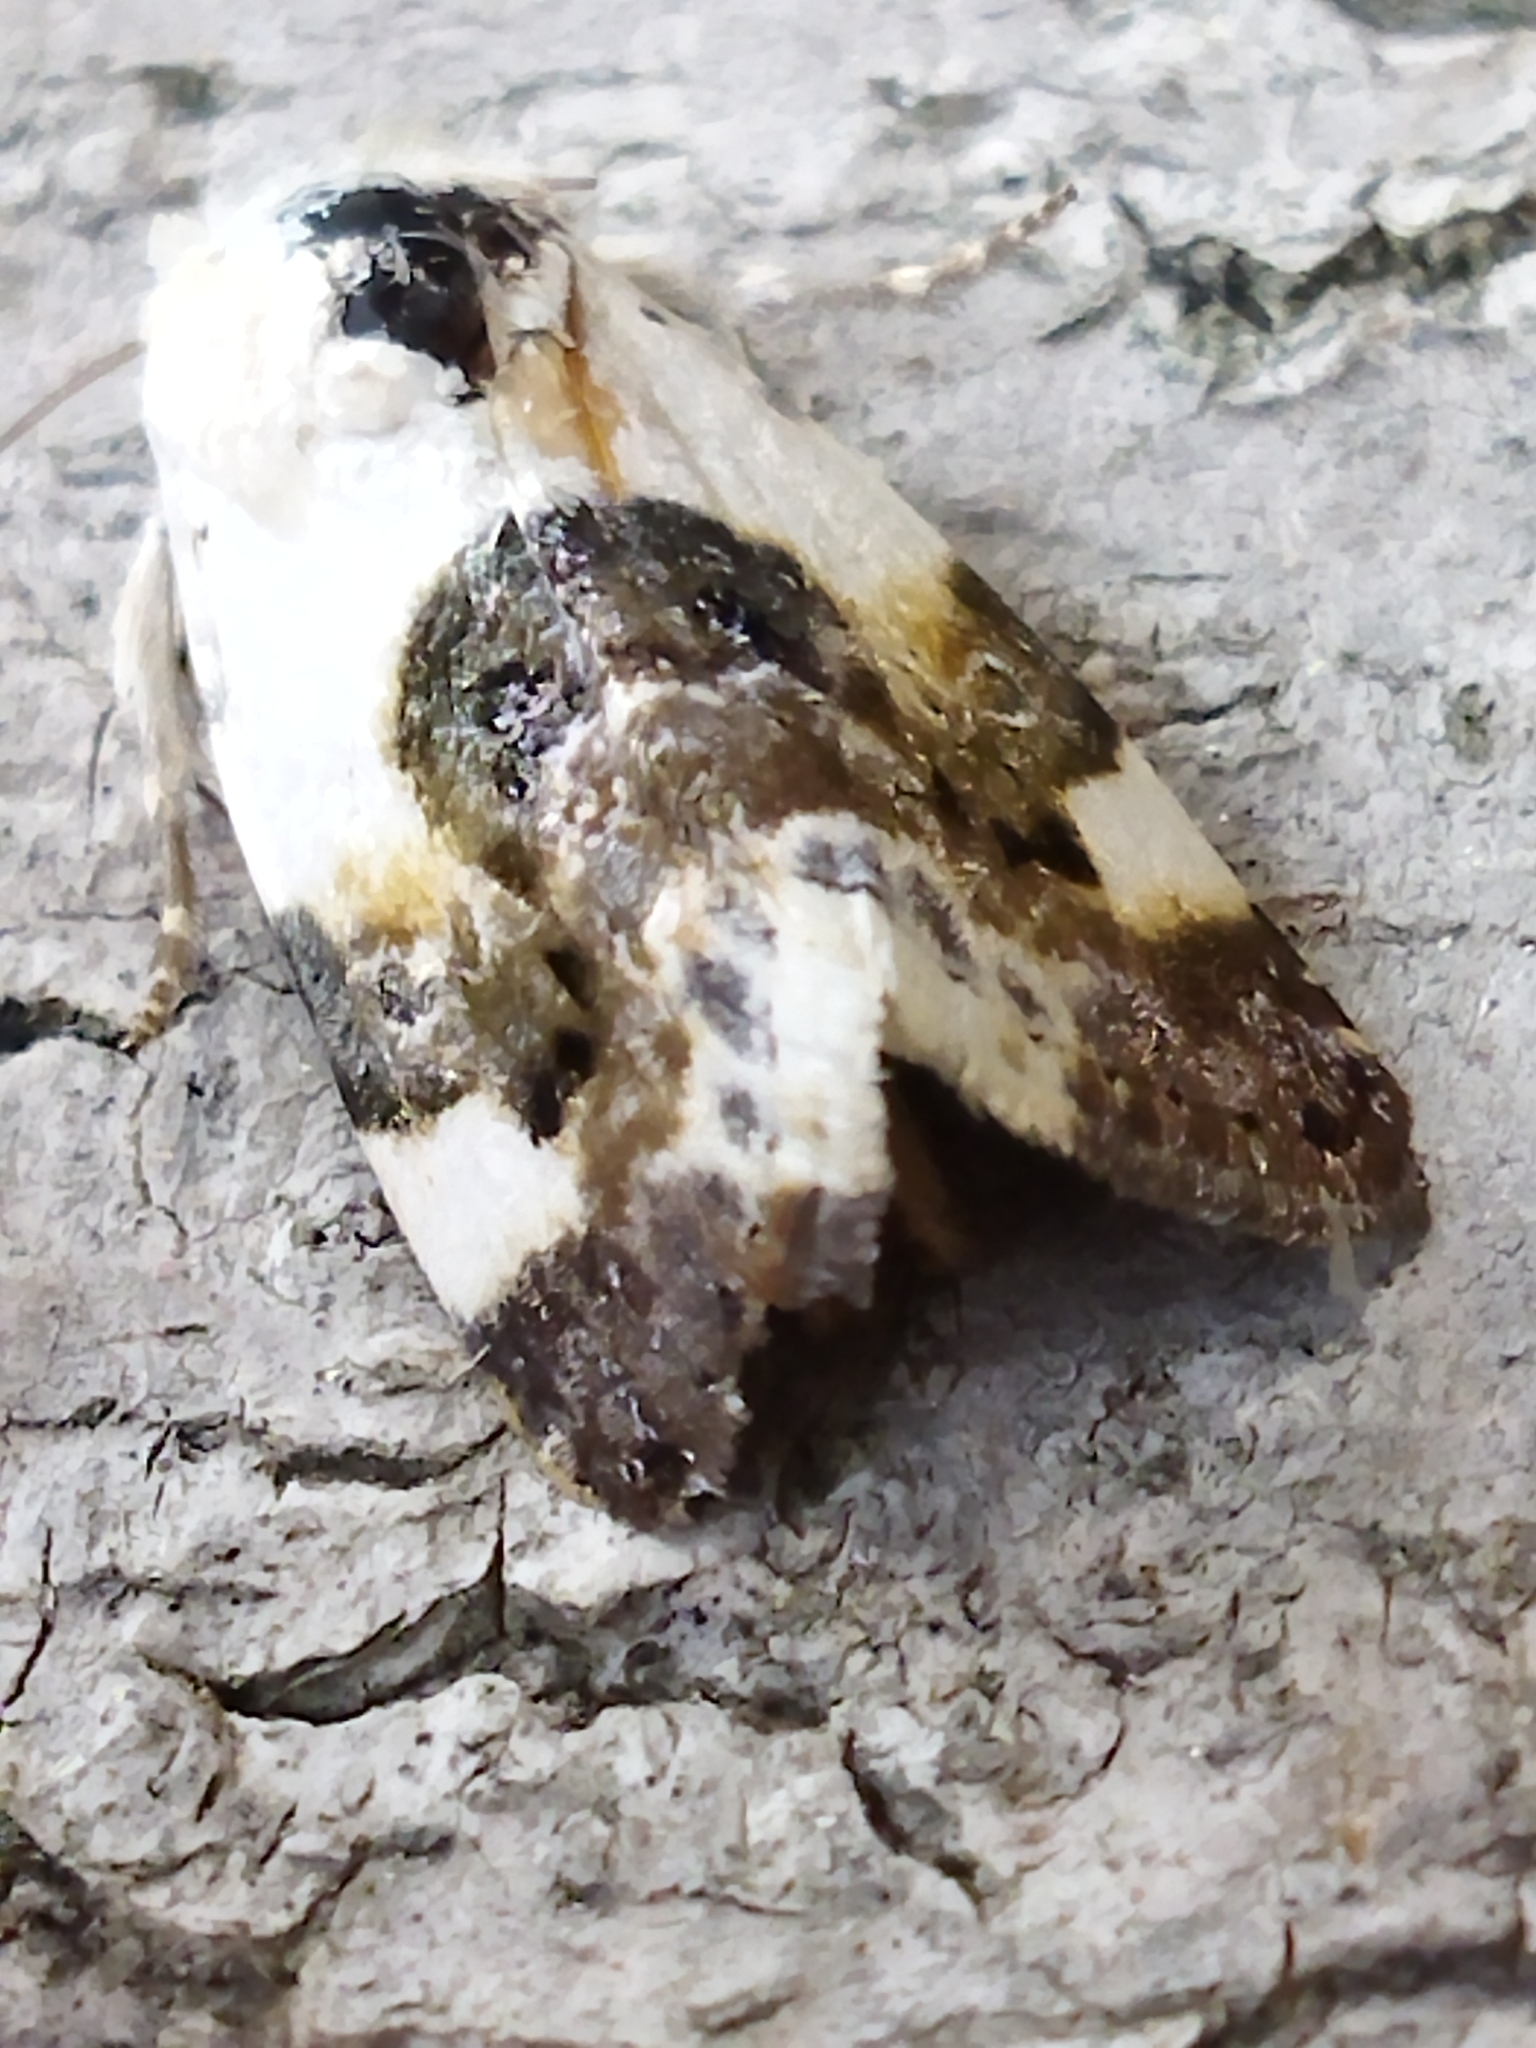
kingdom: Animalia
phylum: Arthropoda
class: Insecta
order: Lepidoptera
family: Noctuidae
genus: Acontia
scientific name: Acontia lucida
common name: Pale shoulder
